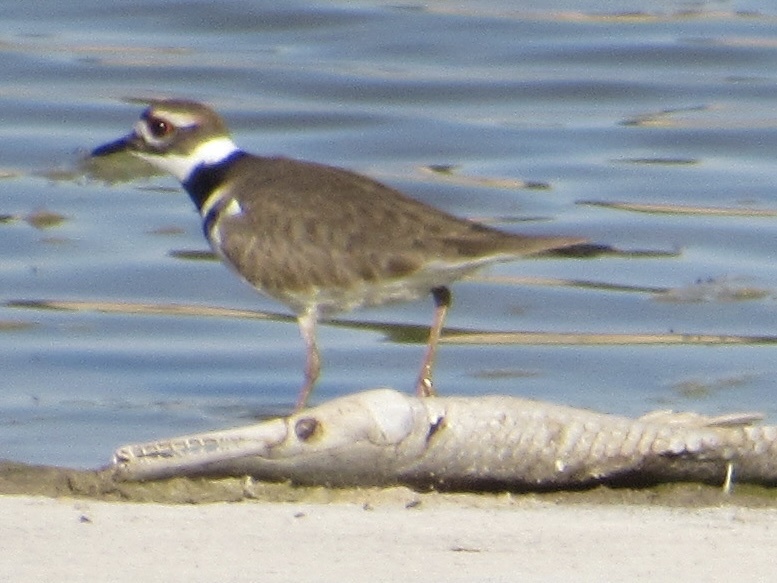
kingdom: Animalia
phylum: Chordata
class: Aves
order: Charadriiformes
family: Charadriidae
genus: Charadrius
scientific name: Charadrius vociferus
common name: Killdeer
